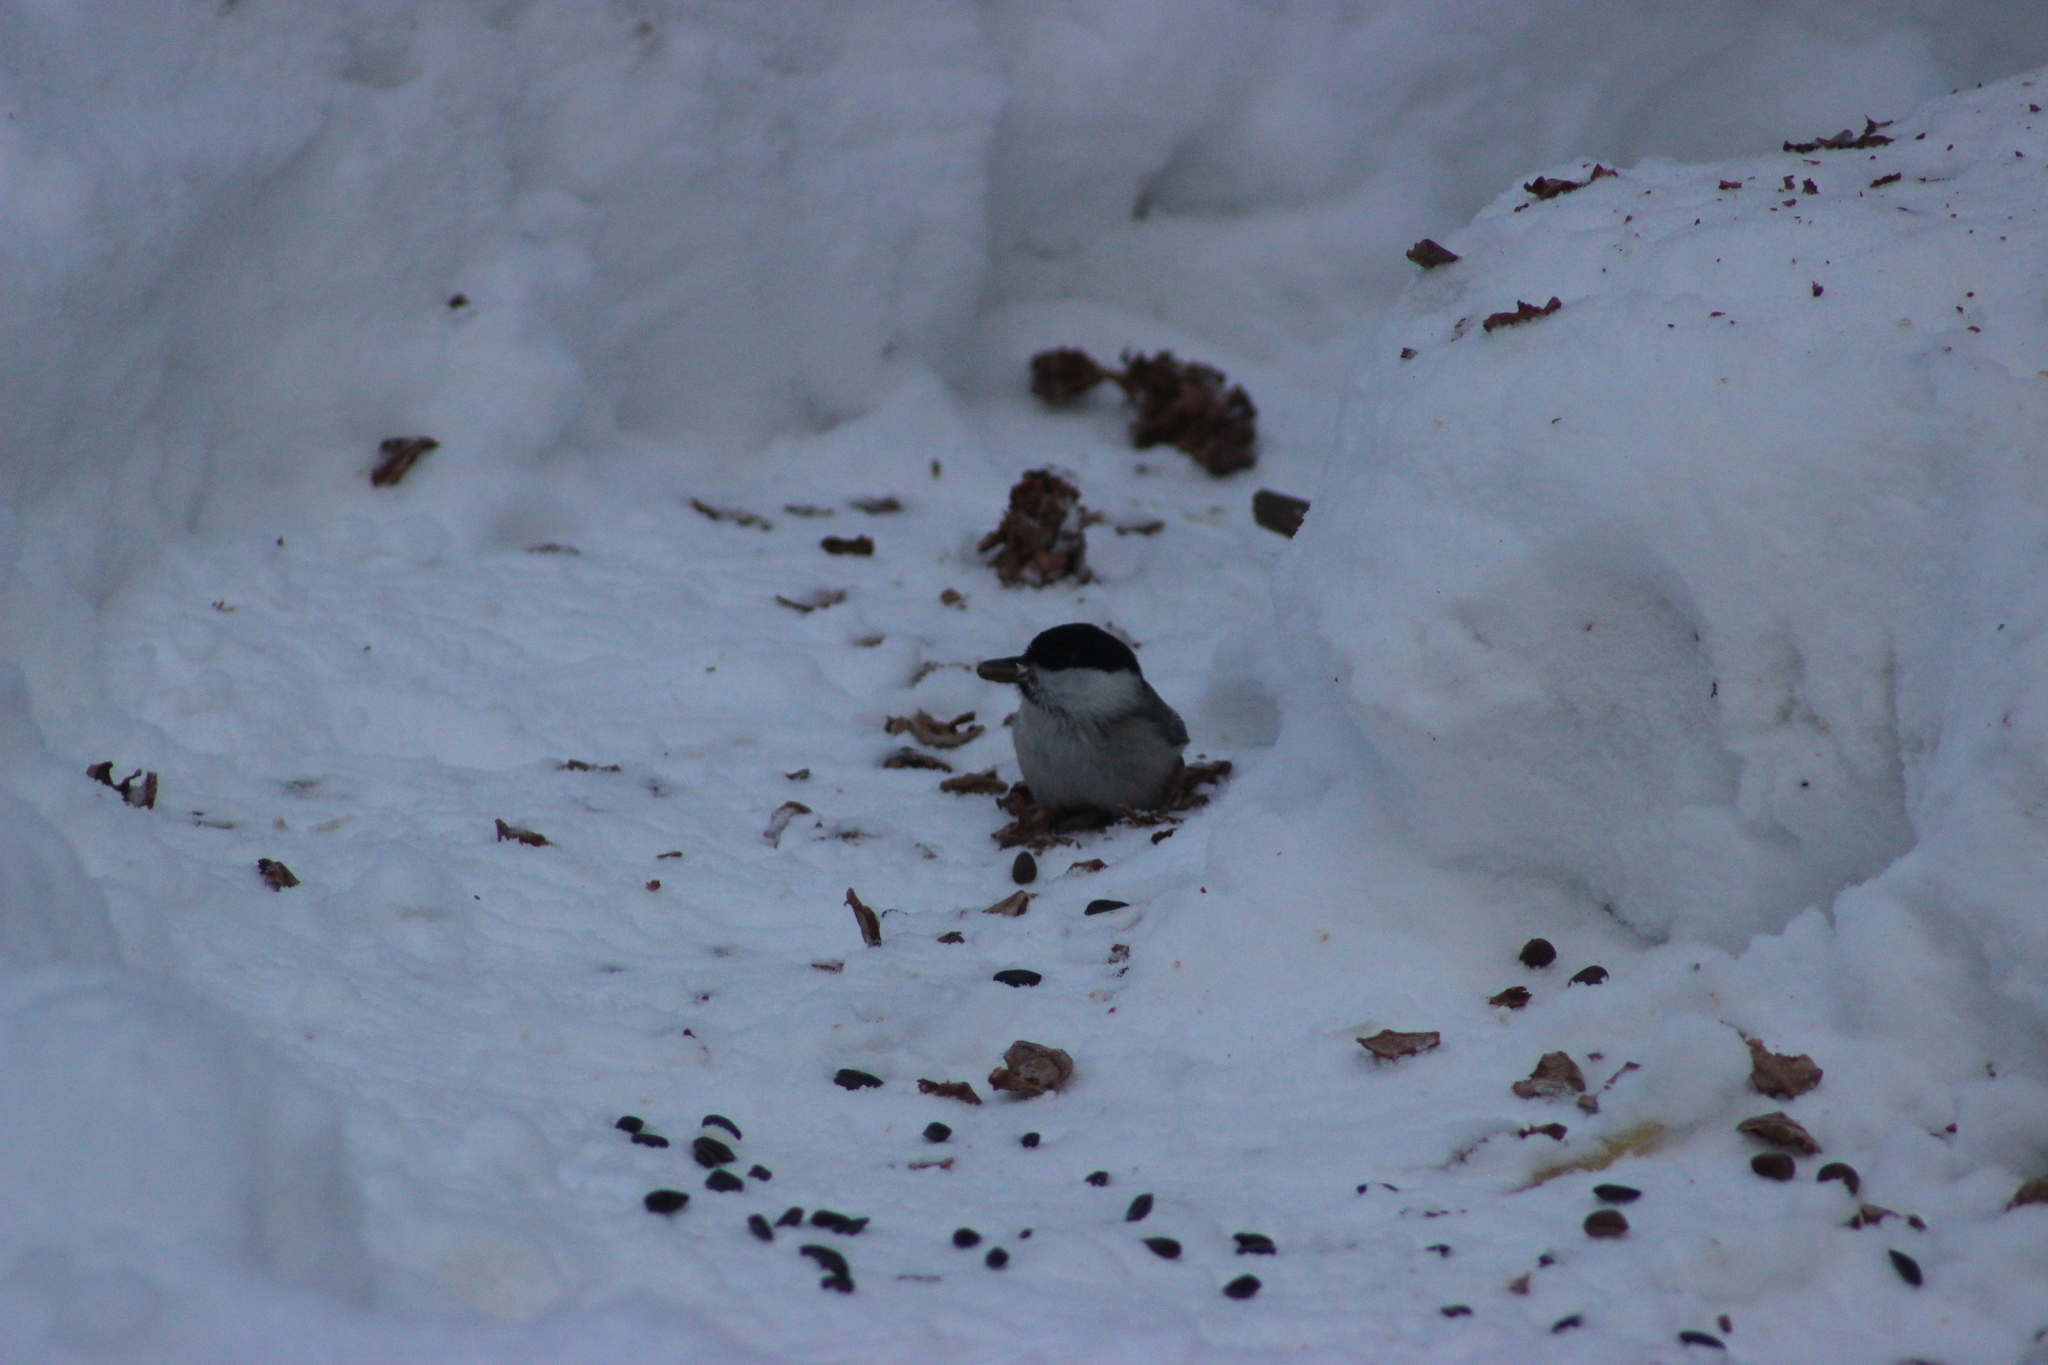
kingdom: Animalia
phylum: Chordata
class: Aves
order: Passeriformes
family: Paridae
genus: Poecile
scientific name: Poecile montanus
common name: Willow tit
